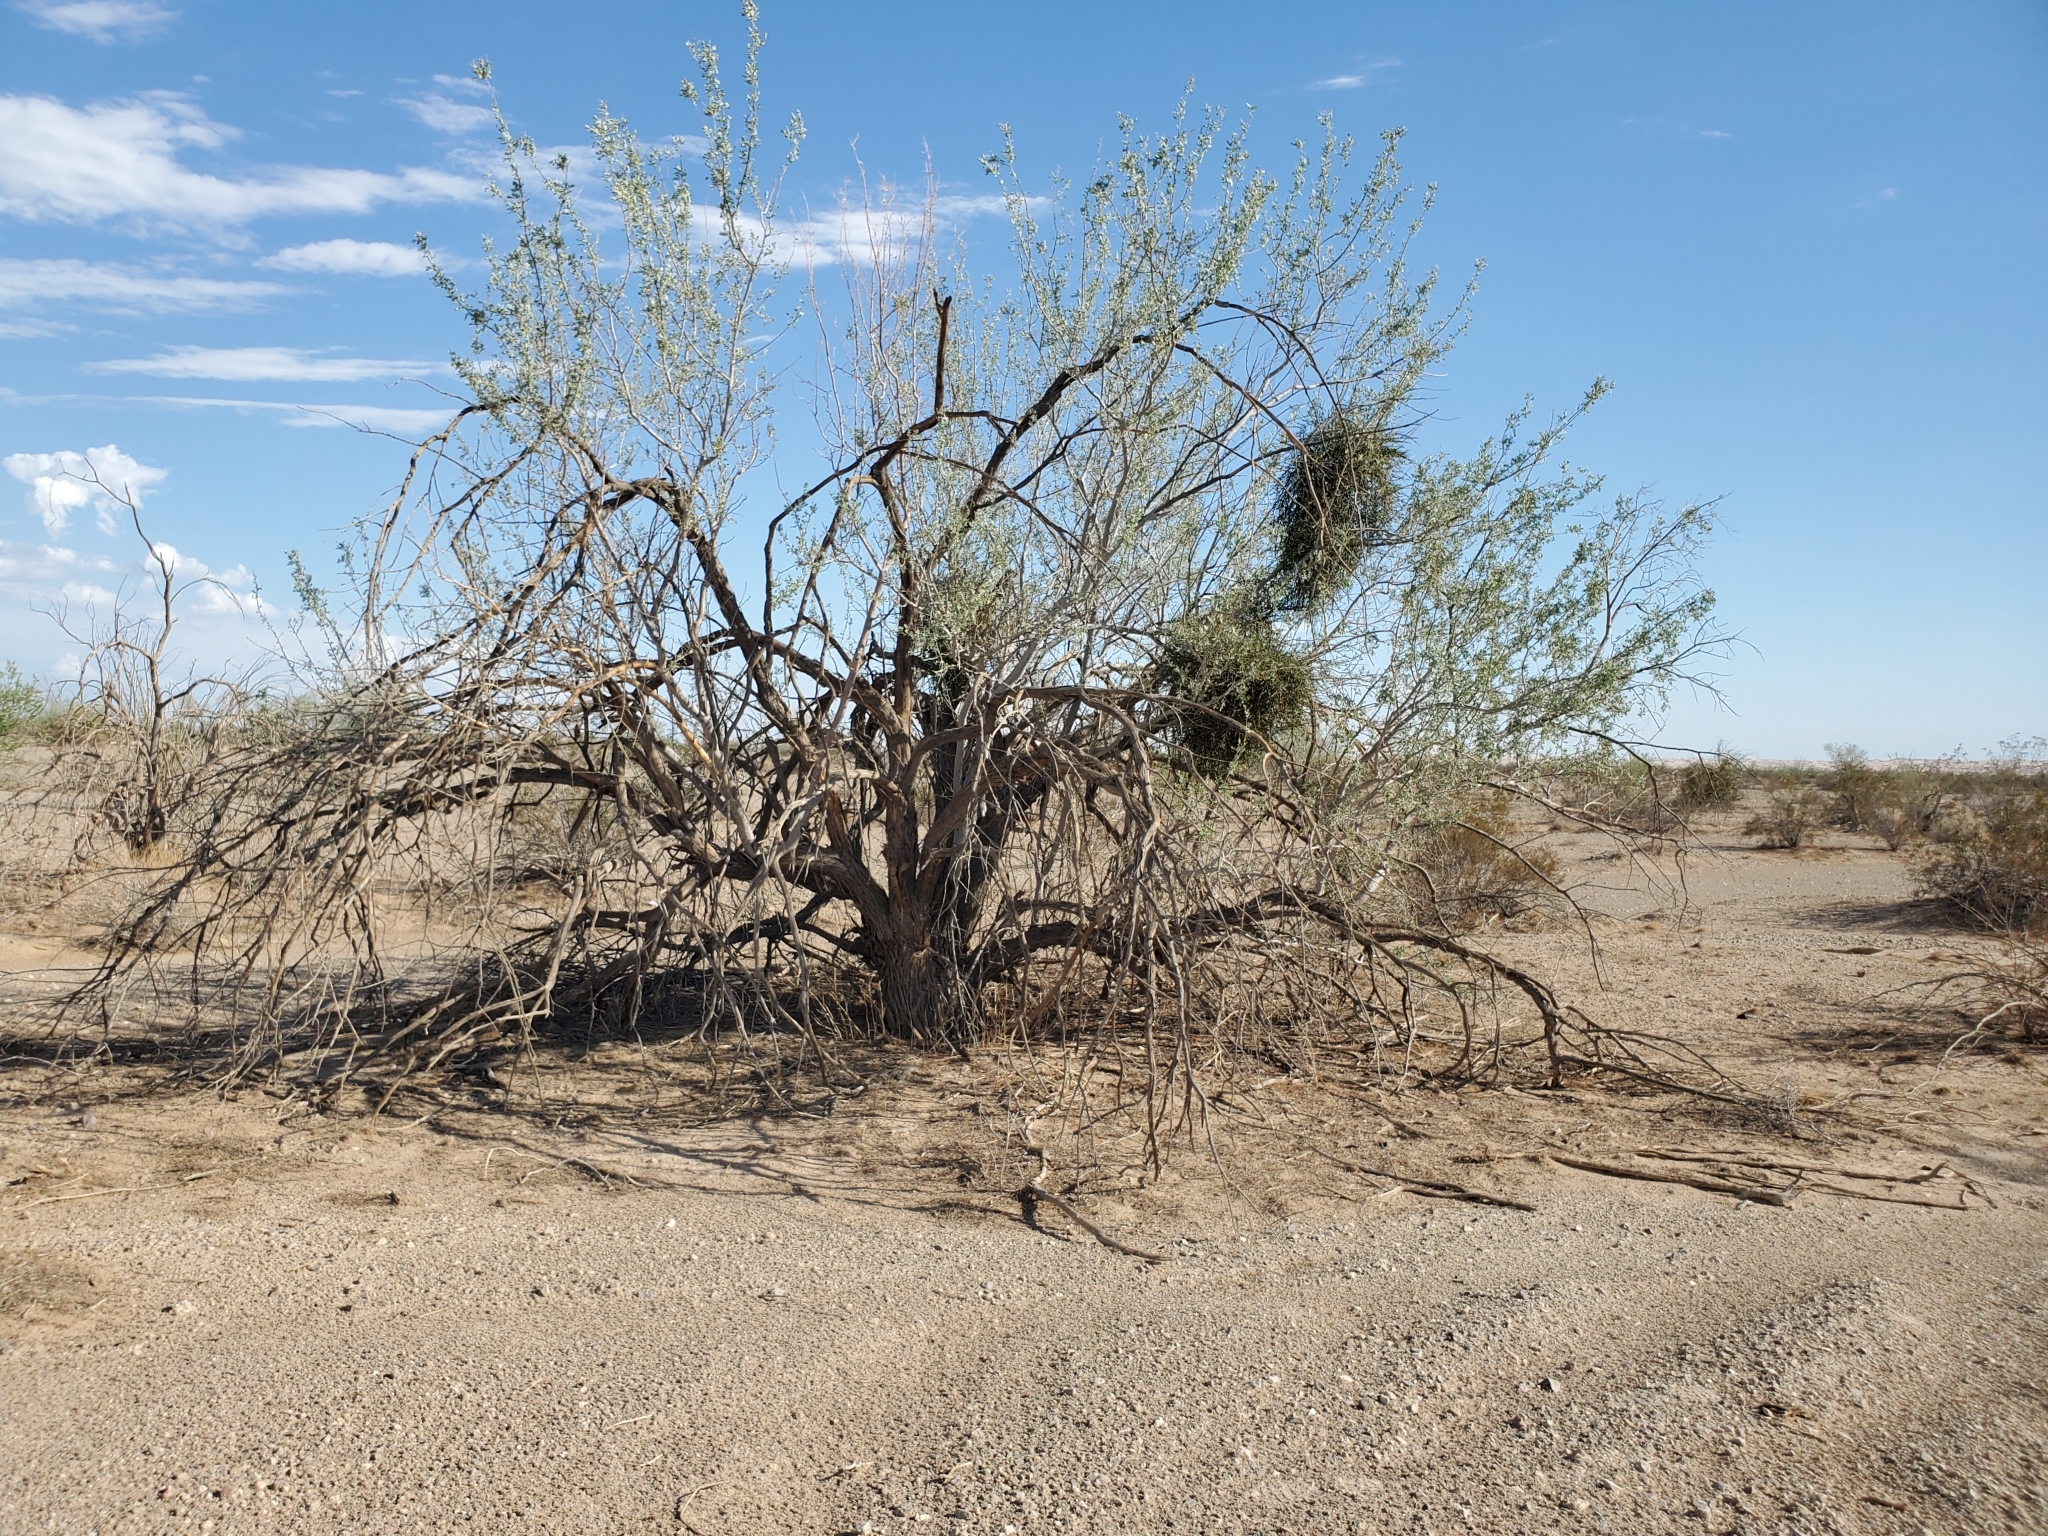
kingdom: Plantae
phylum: Tracheophyta
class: Magnoliopsida
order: Fabales
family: Fabaceae
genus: Olneya
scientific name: Olneya tesota
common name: Desert ironwood
